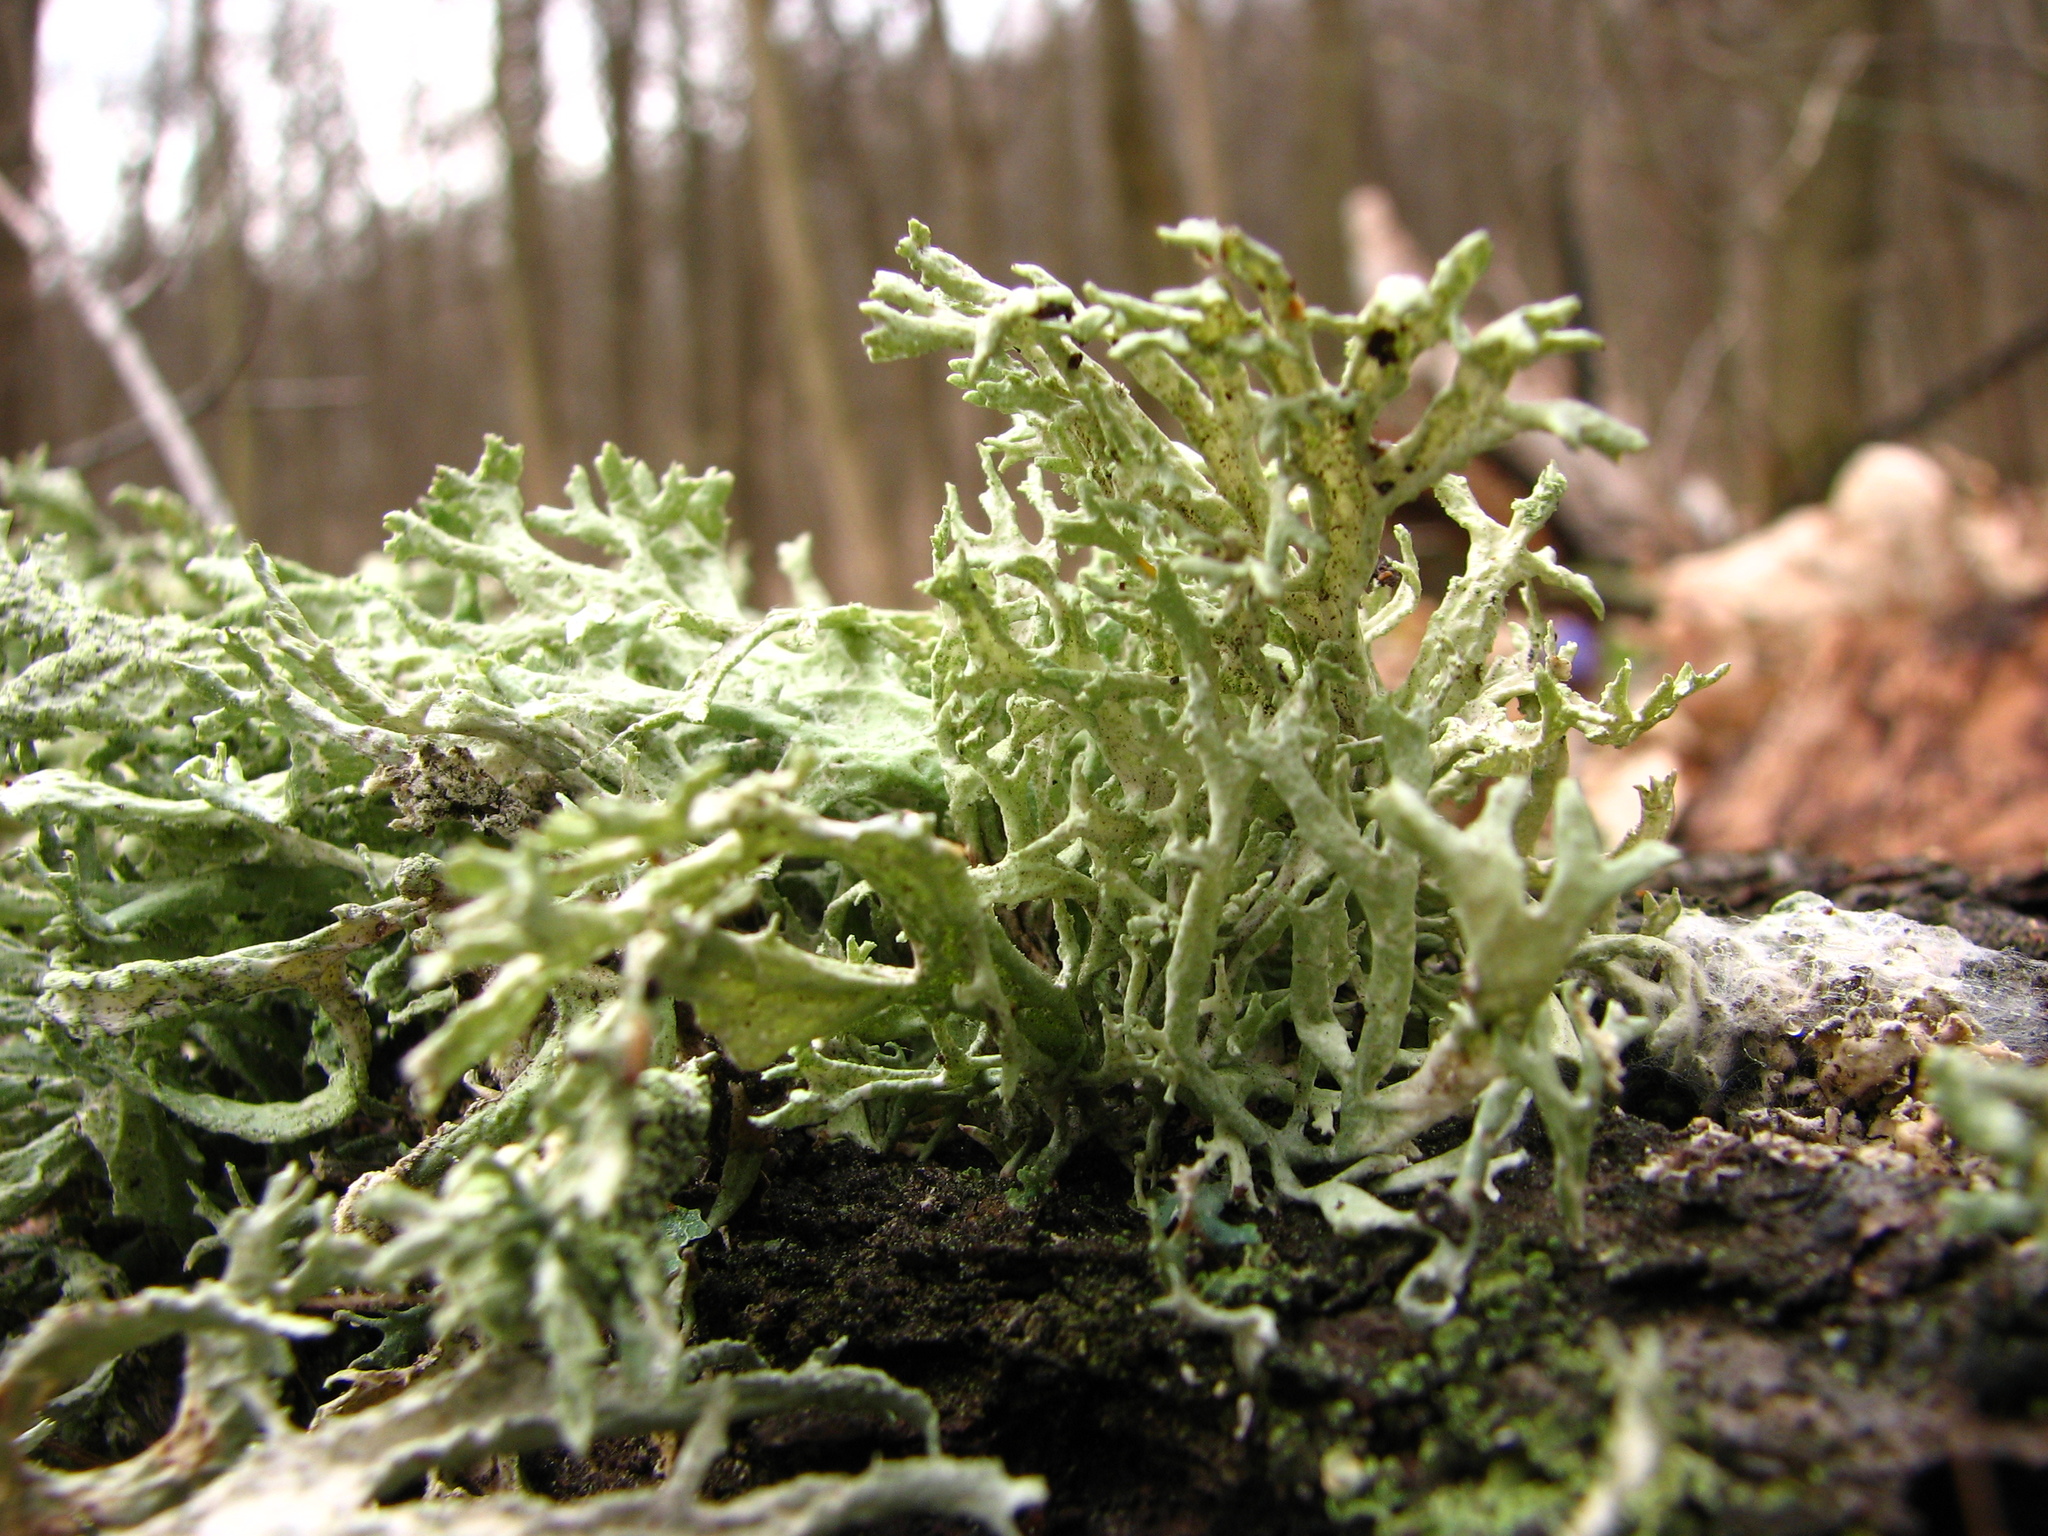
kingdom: Fungi
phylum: Ascomycota
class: Lecanoromycetes
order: Lecanorales
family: Parmeliaceae
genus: Evernia
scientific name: Evernia prunastri
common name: Oak moss
